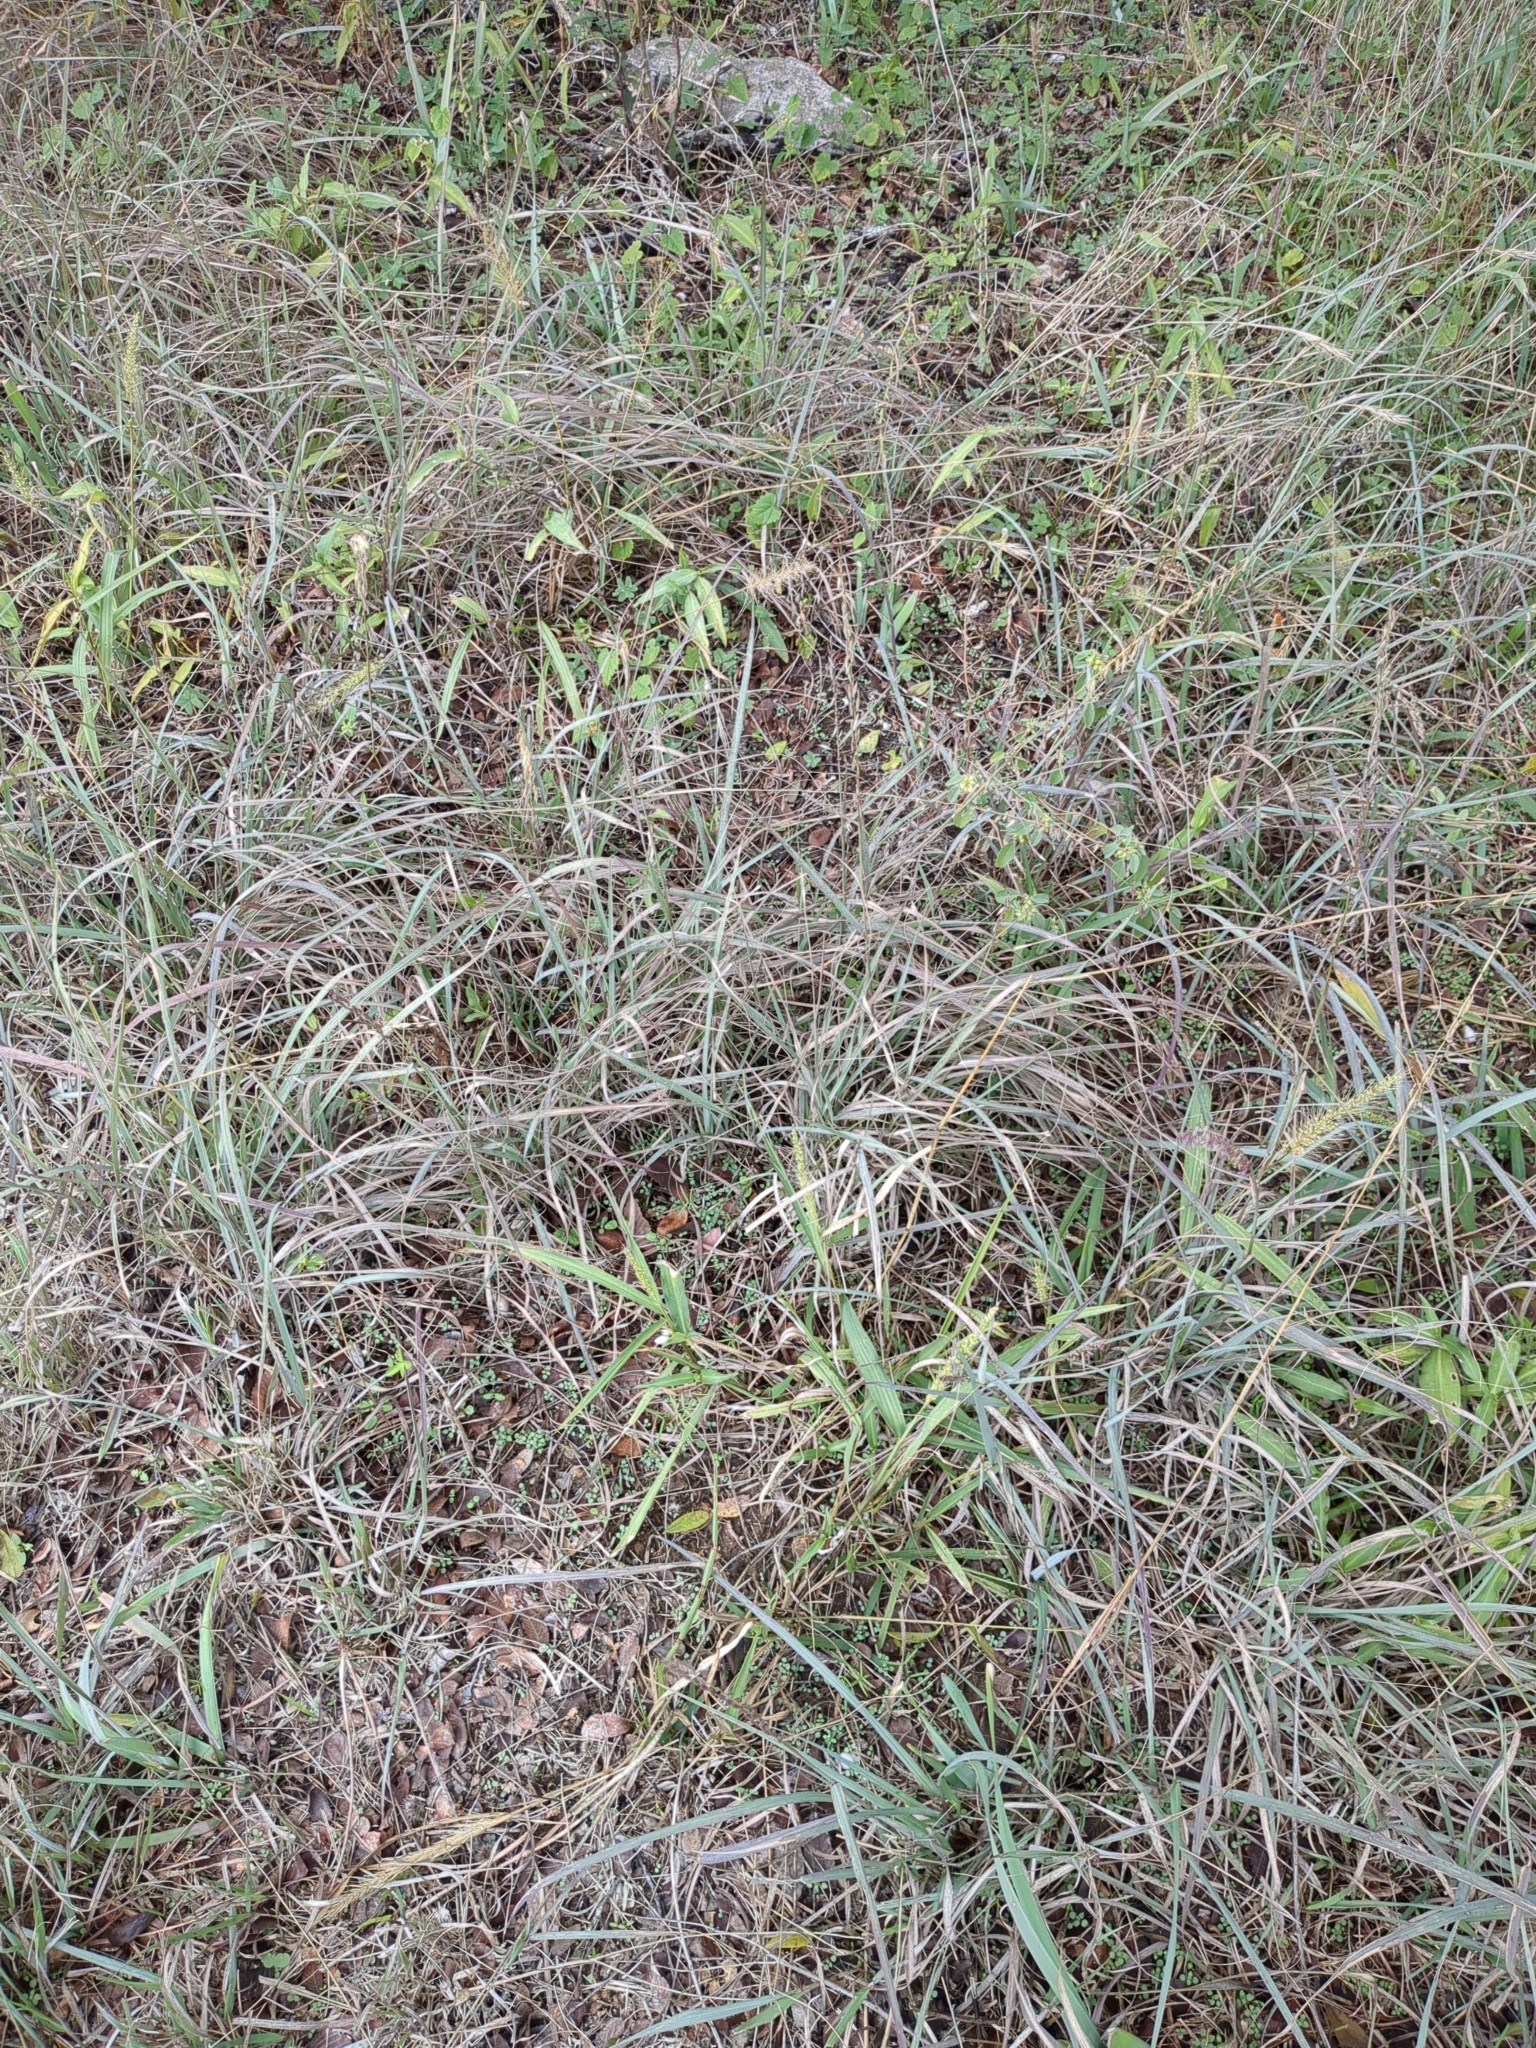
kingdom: Plantae
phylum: Tracheophyta
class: Liliopsida
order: Poales
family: Poaceae
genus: Bouteloua
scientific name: Bouteloua curtipendula
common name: Side-oats grama
